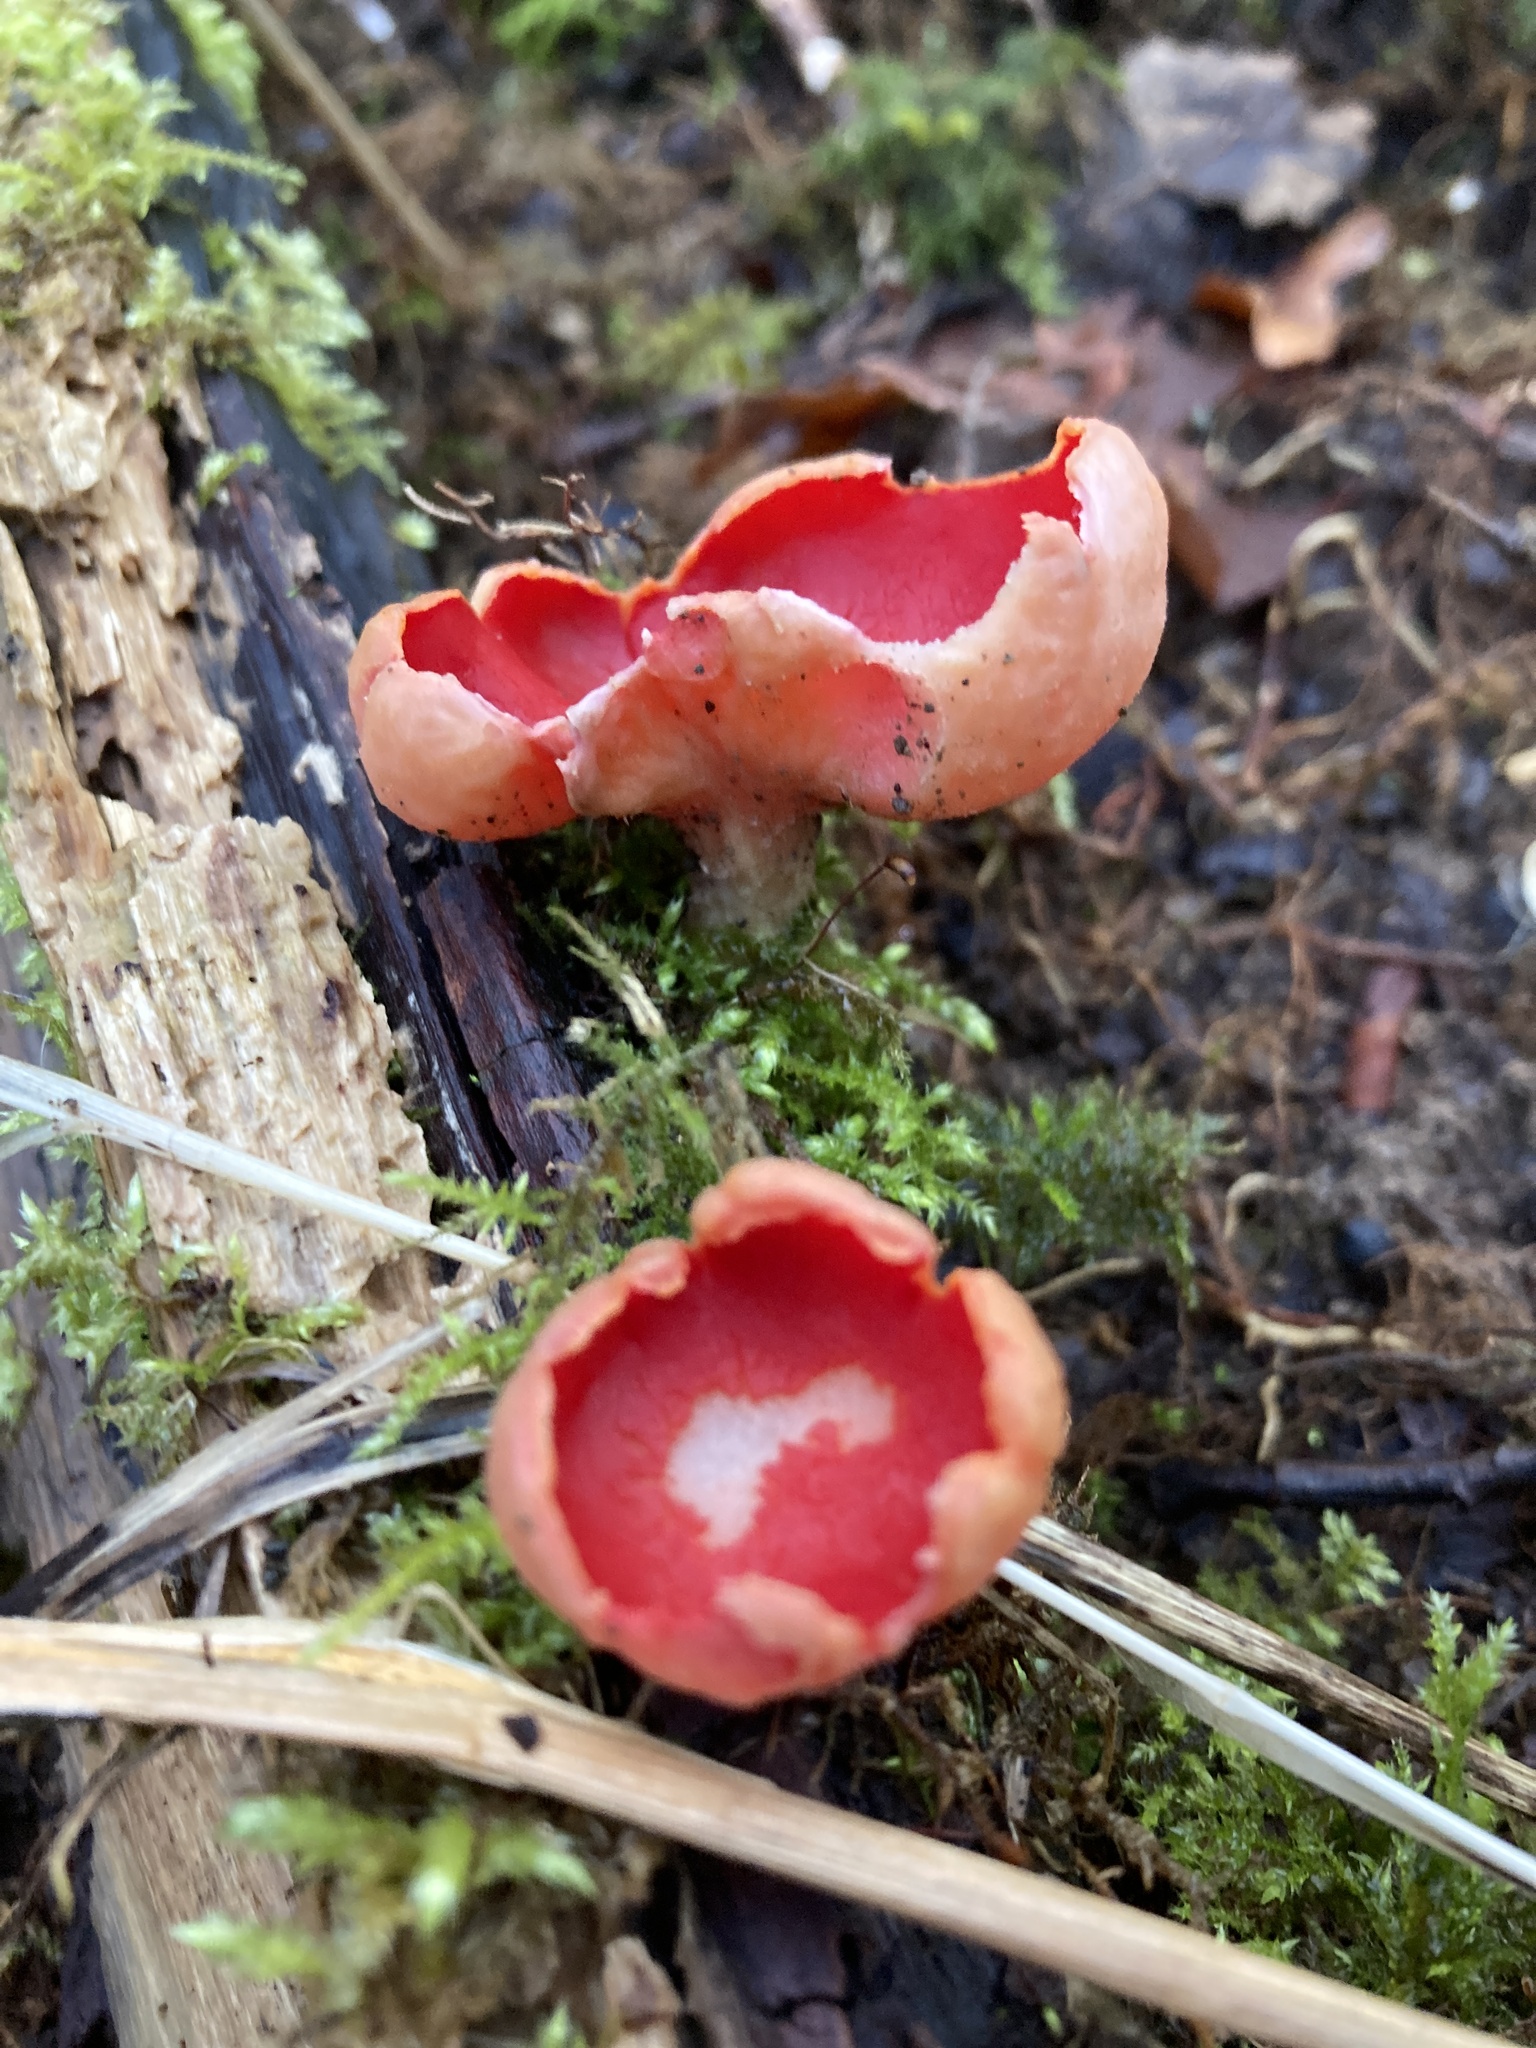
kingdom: Fungi
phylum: Ascomycota
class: Pezizomycetes
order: Pezizales
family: Sarcoscyphaceae
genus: Sarcoscypha
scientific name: Sarcoscypha
